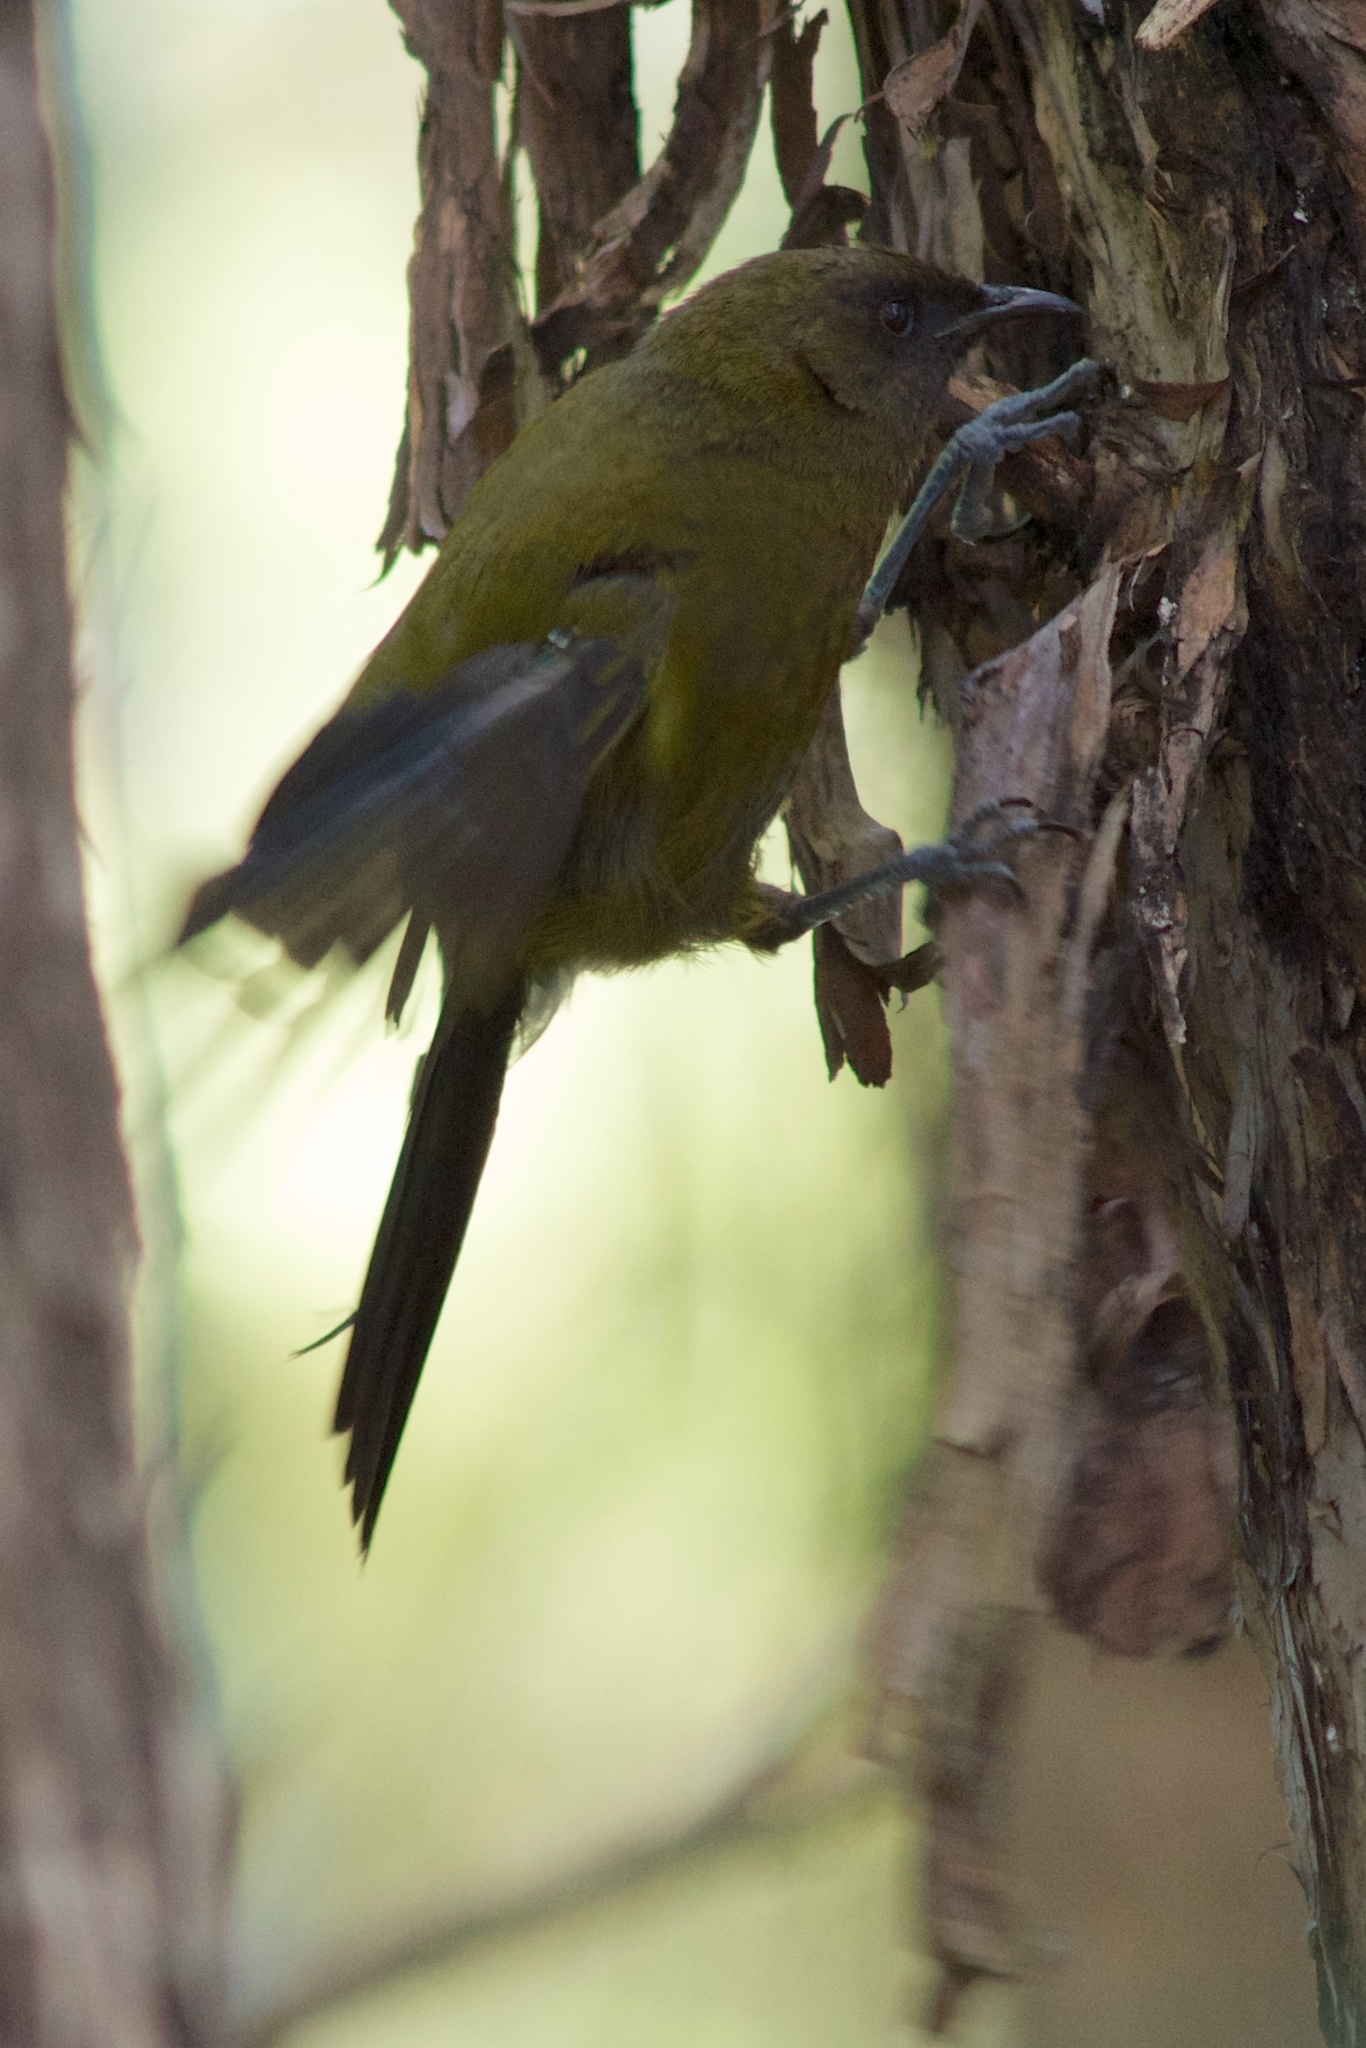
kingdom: Animalia
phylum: Chordata
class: Aves
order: Passeriformes
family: Meliphagidae
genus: Anthornis
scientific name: Anthornis melanura
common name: New zealand bellbird
